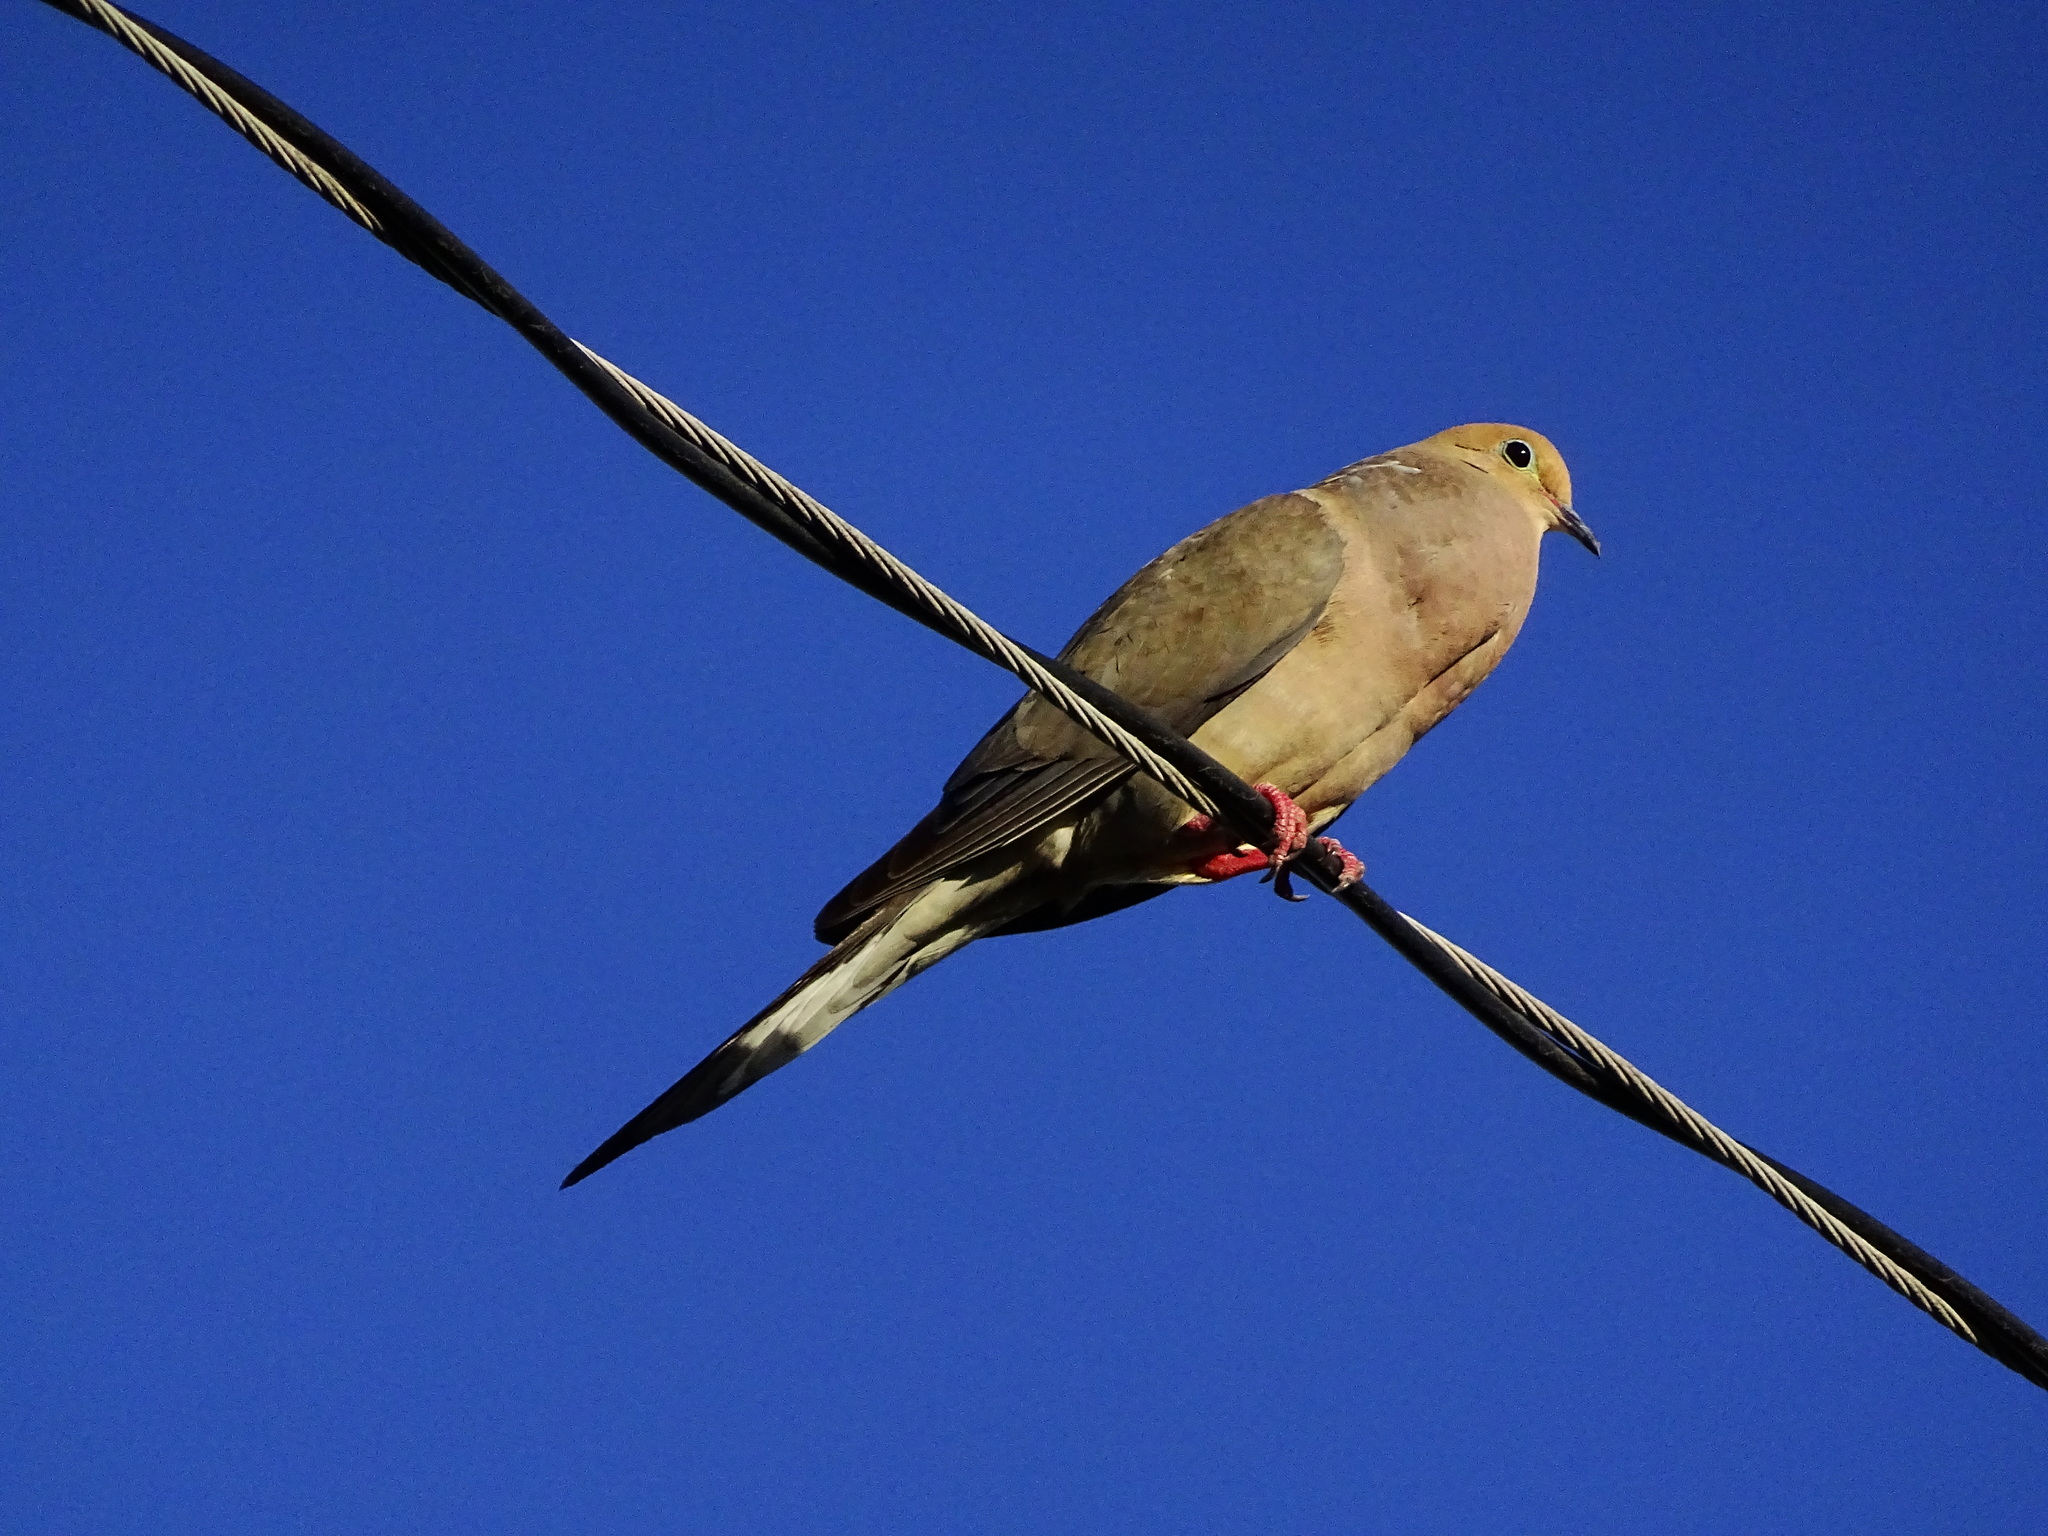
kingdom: Animalia
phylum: Chordata
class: Aves
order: Columbiformes
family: Columbidae
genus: Zenaida
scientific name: Zenaida macroura
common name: Mourning dove
